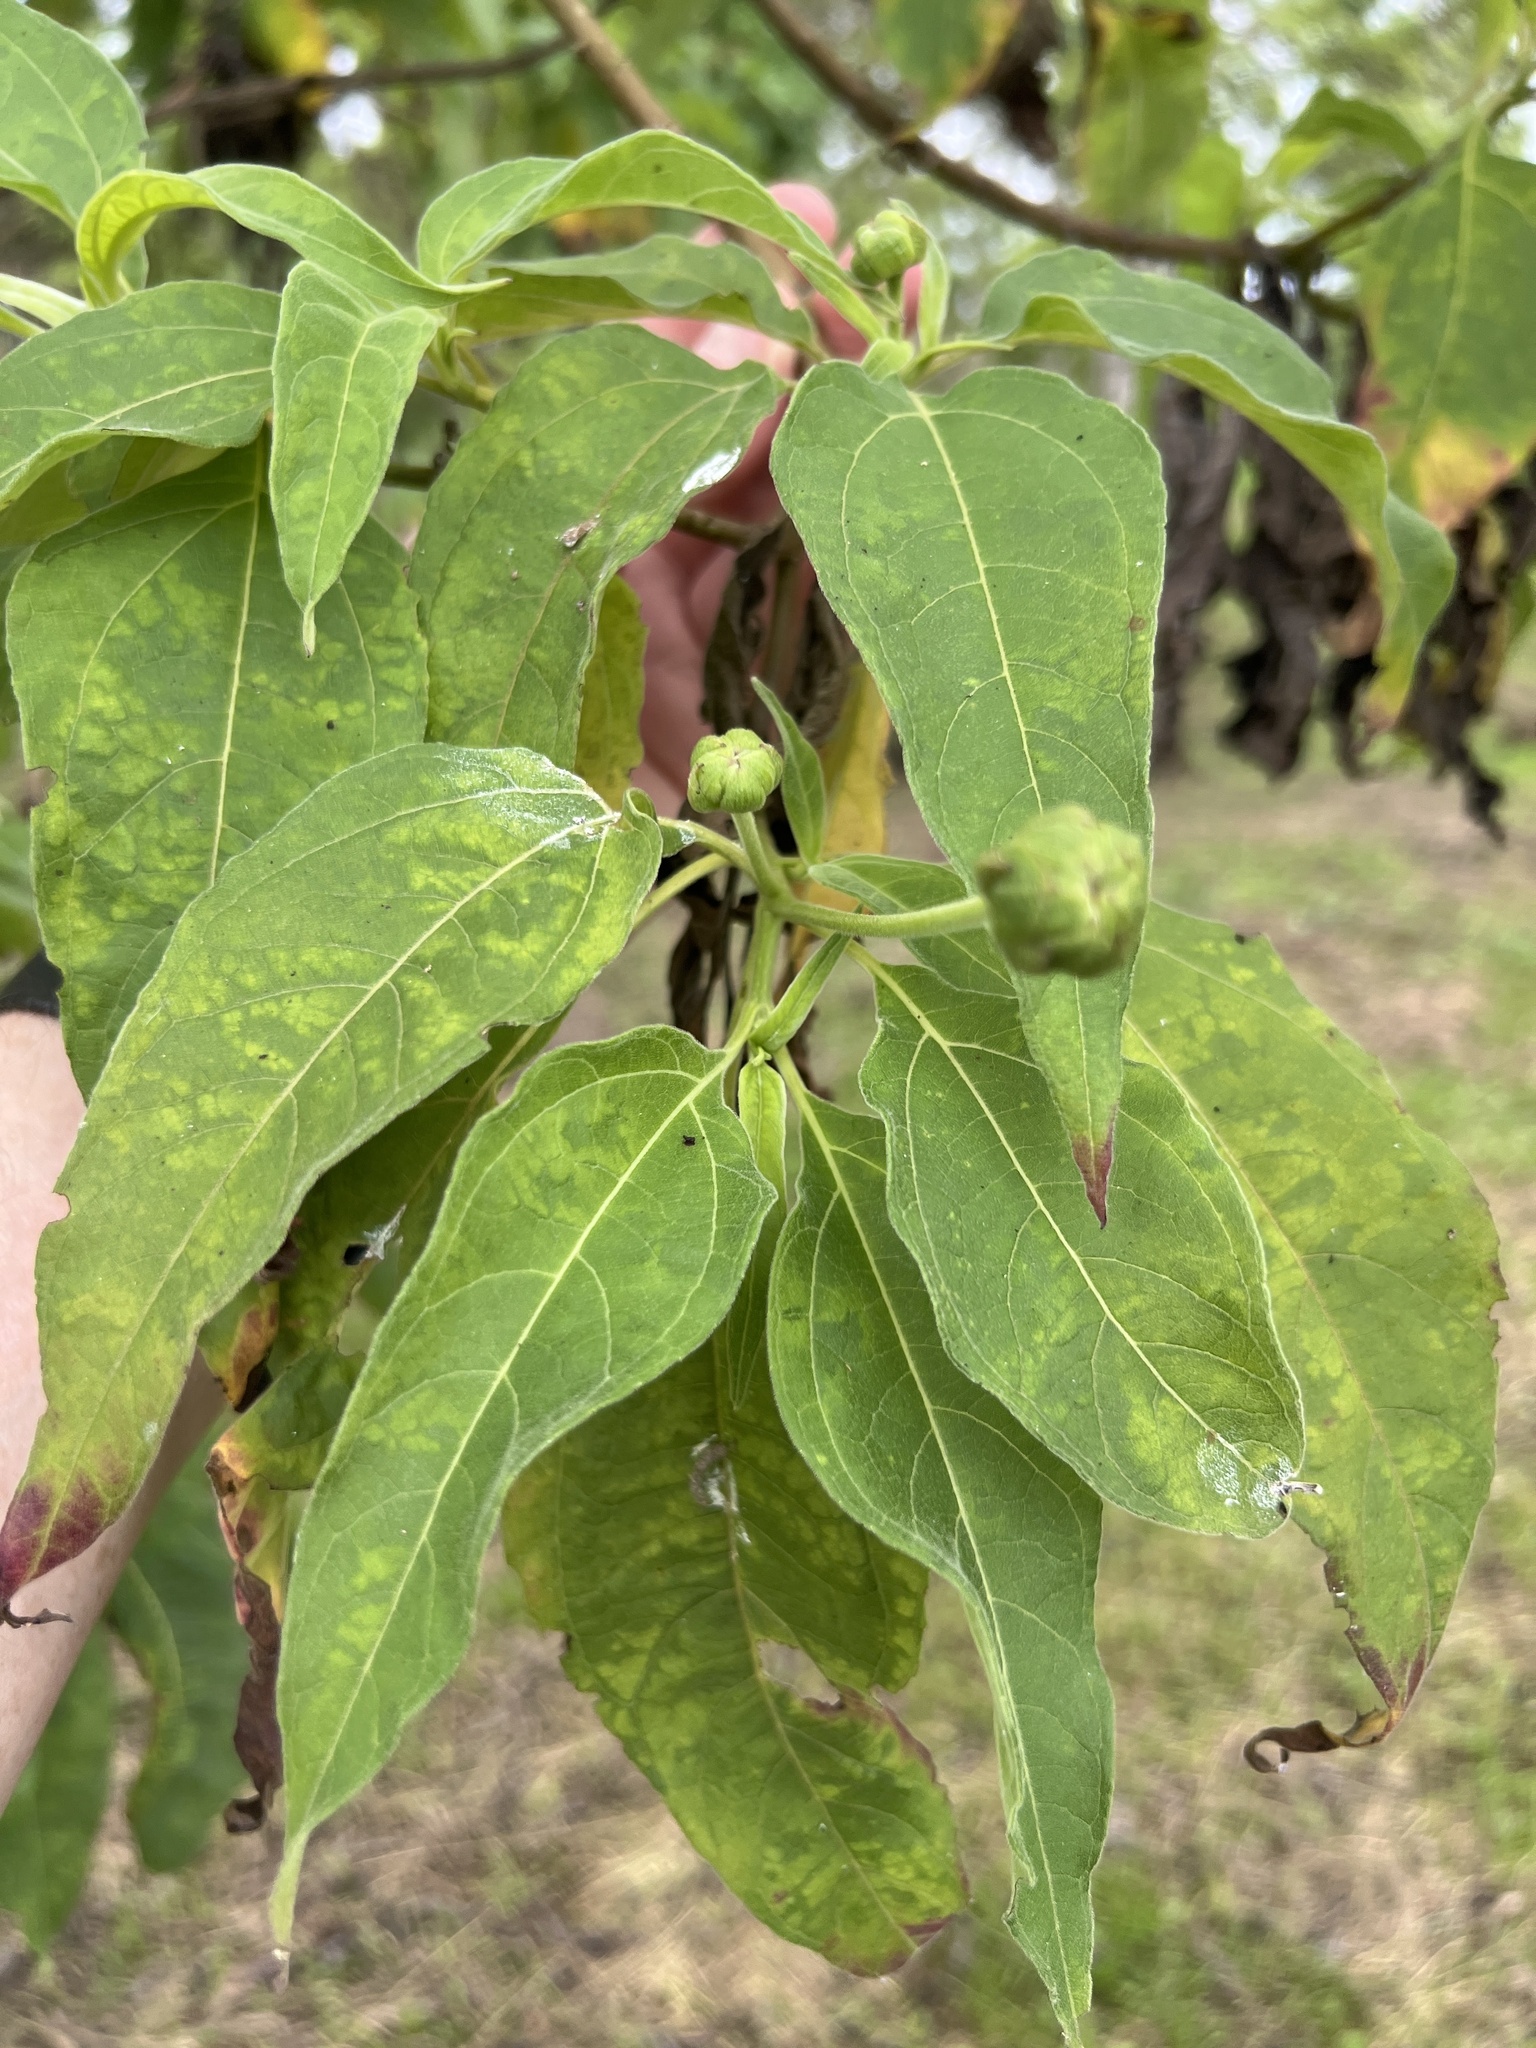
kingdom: Plantae
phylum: Tracheophyta
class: Magnoliopsida
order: Asterales
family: Asteraceae
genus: Scalesia
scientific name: Scalesia pedunculata
